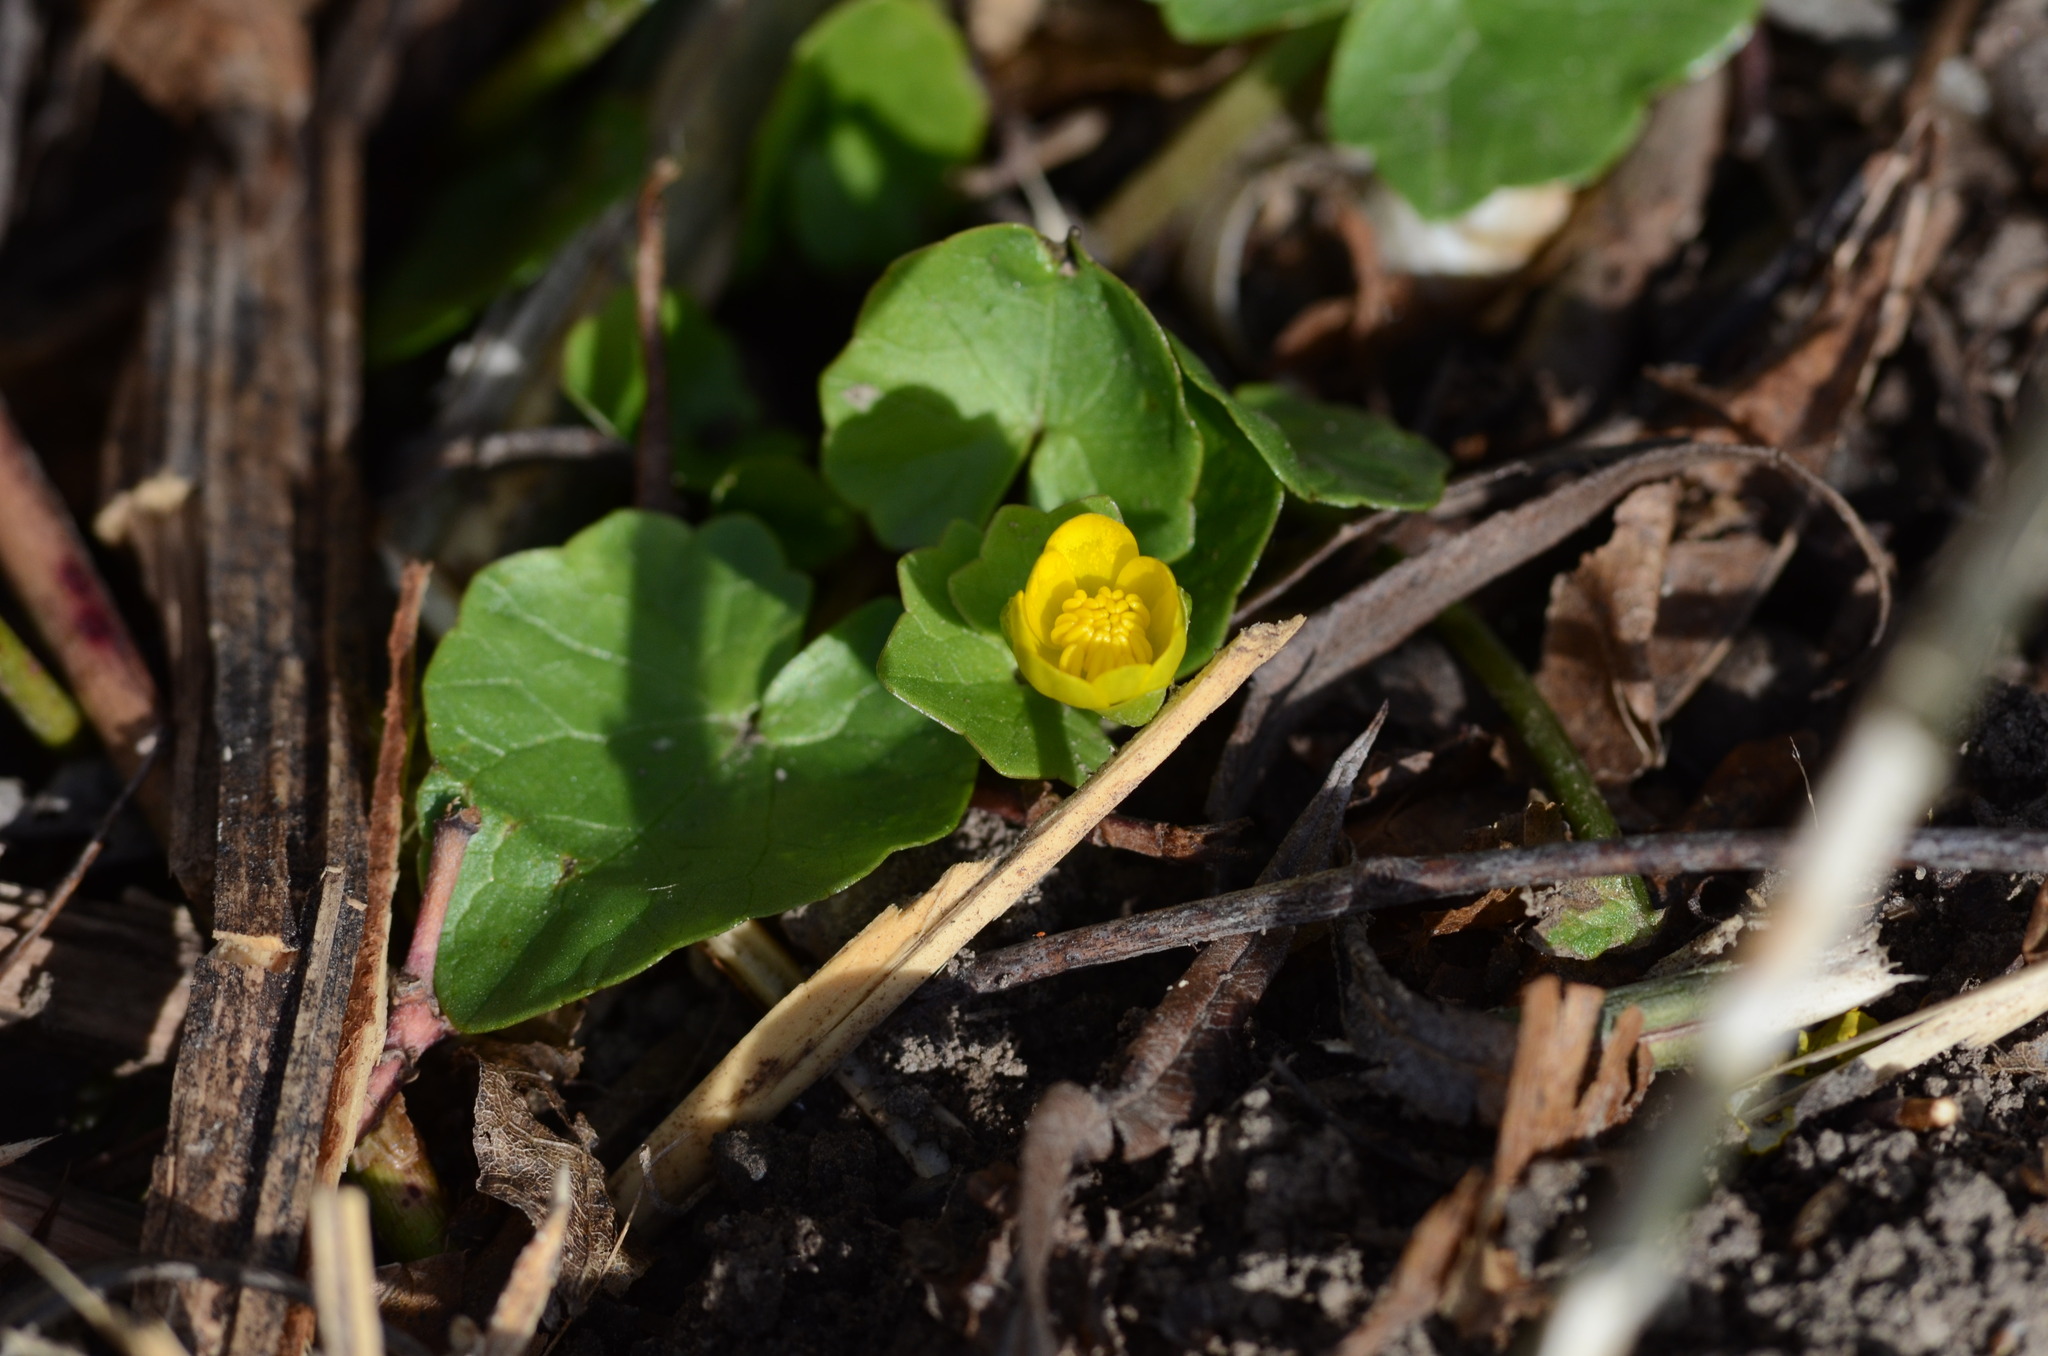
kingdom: Plantae
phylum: Tracheophyta
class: Magnoliopsida
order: Ranunculales
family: Ranunculaceae
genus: Ficaria
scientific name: Ficaria verna
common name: Lesser celandine
